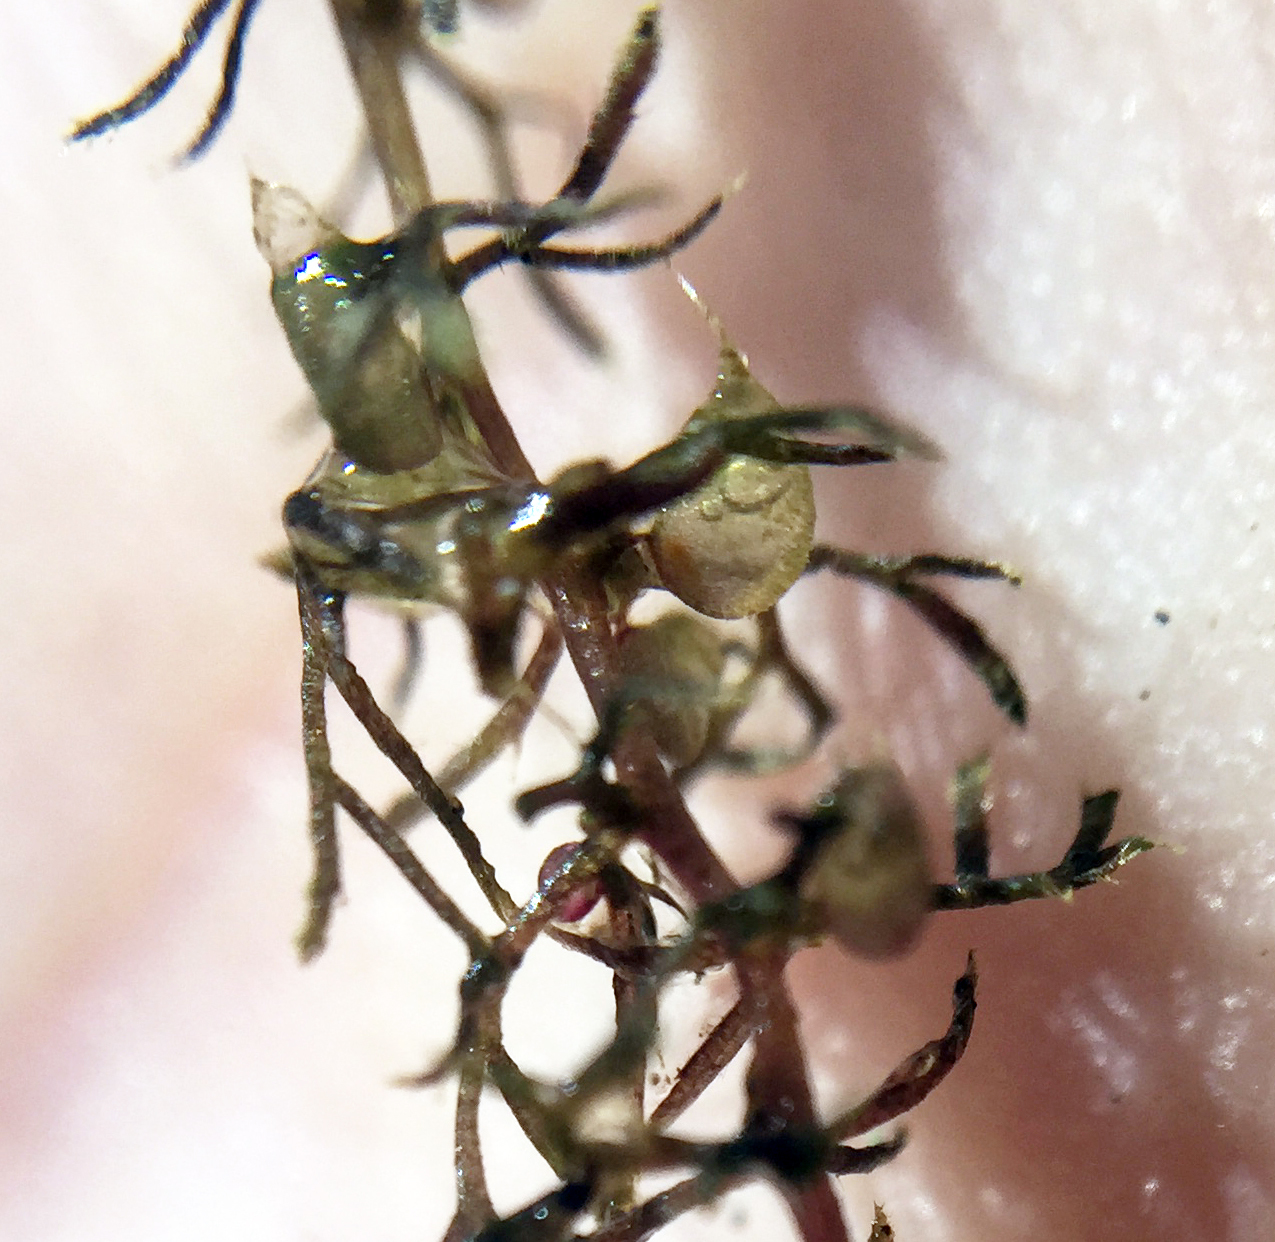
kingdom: Plantae
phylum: Tracheophyta
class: Magnoliopsida
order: Lamiales
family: Lentibulariaceae
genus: Utricularia
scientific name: Utricularia minor
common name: Lesser bladderwort
